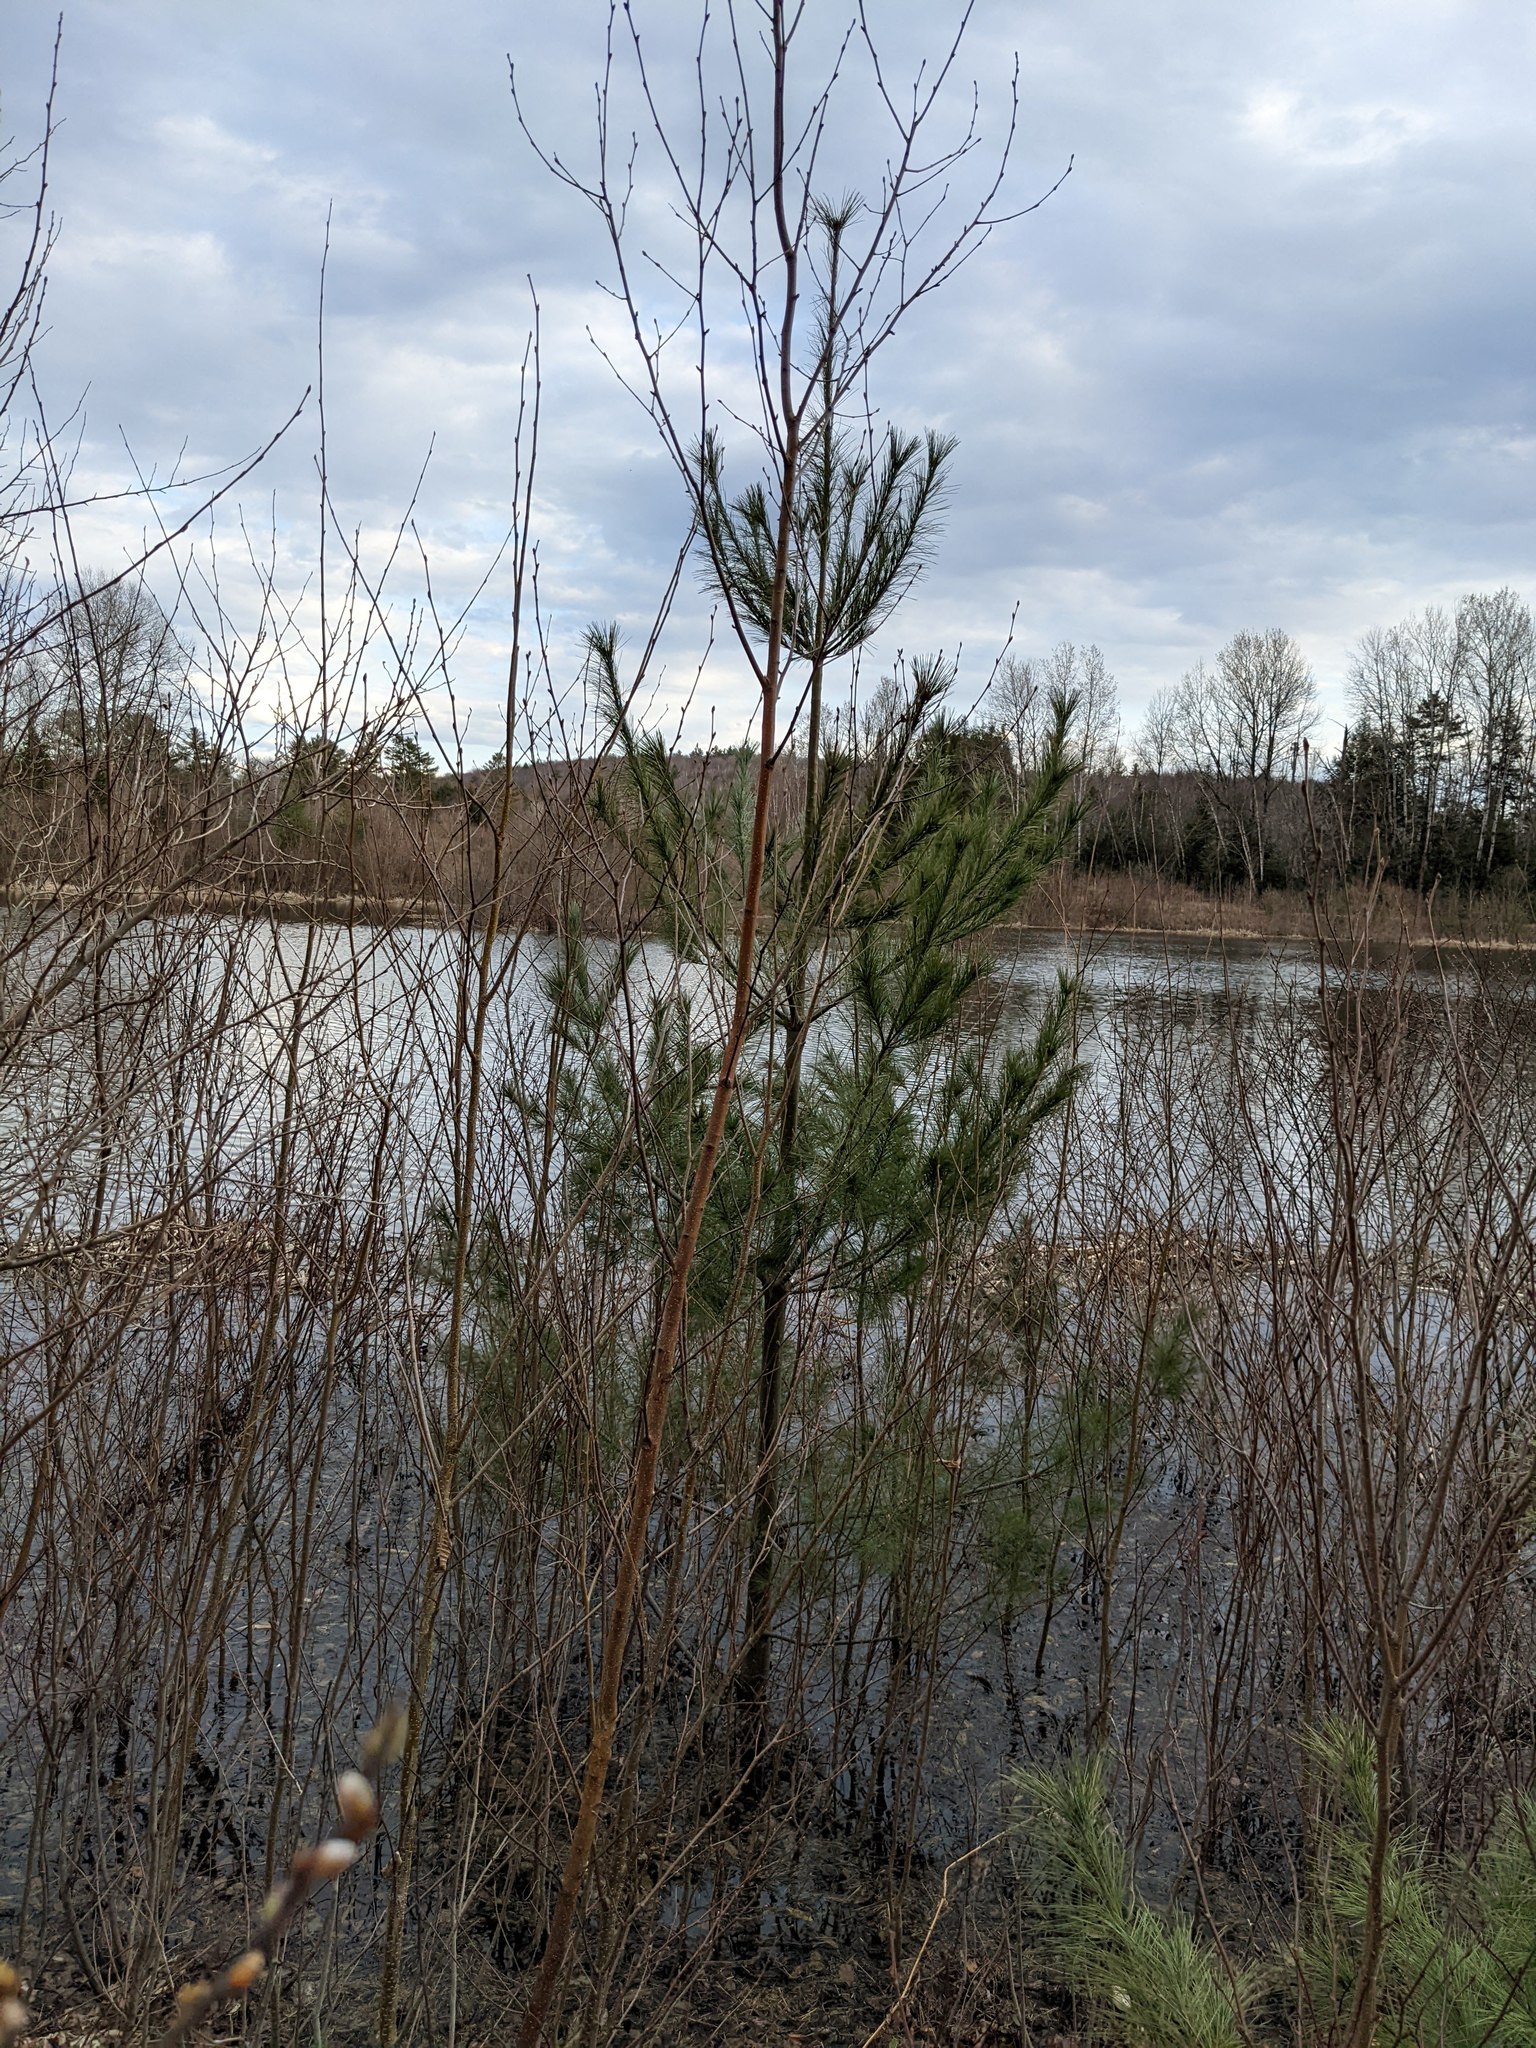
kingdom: Plantae
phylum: Tracheophyta
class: Pinopsida
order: Pinales
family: Pinaceae
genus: Pinus
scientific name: Pinus strobus
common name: Weymouth pine
